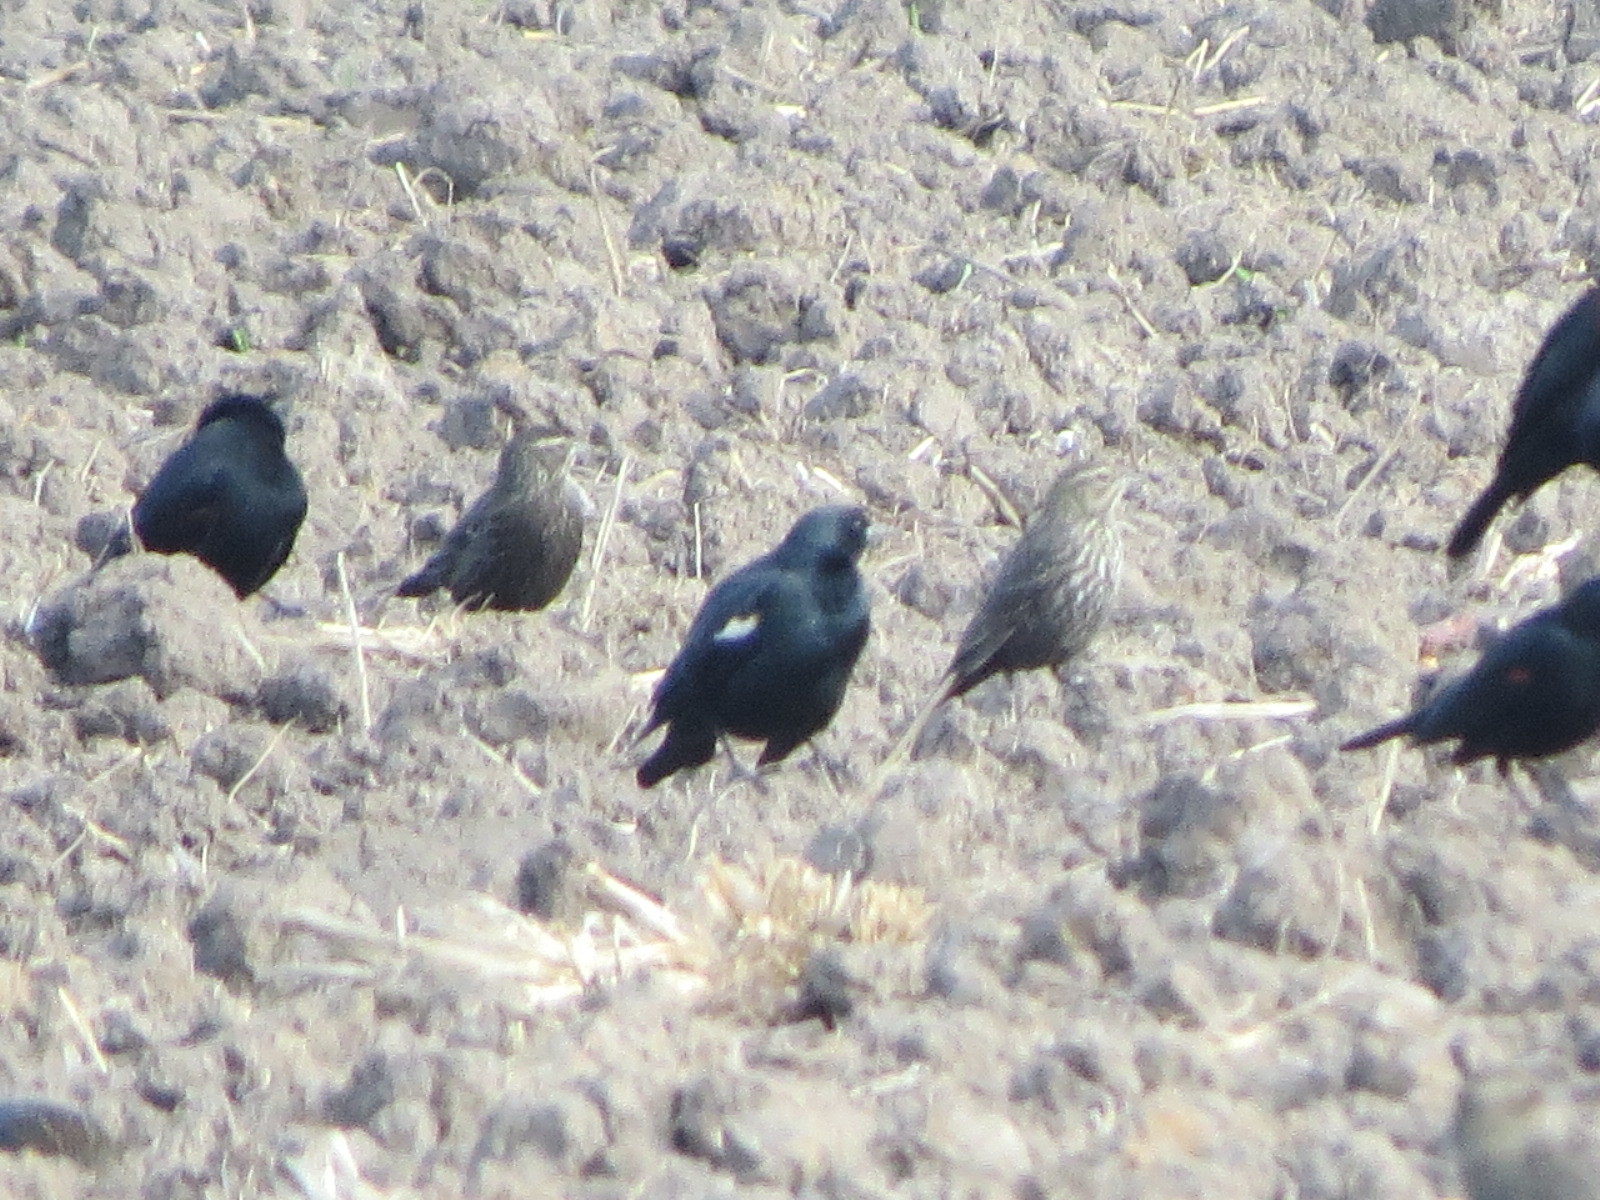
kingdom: Animalia
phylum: Chordata
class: Aves
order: Passeriformes
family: Icteridae
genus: Agelaius
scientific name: Agelaius tricolor
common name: Tricolored blackbird
